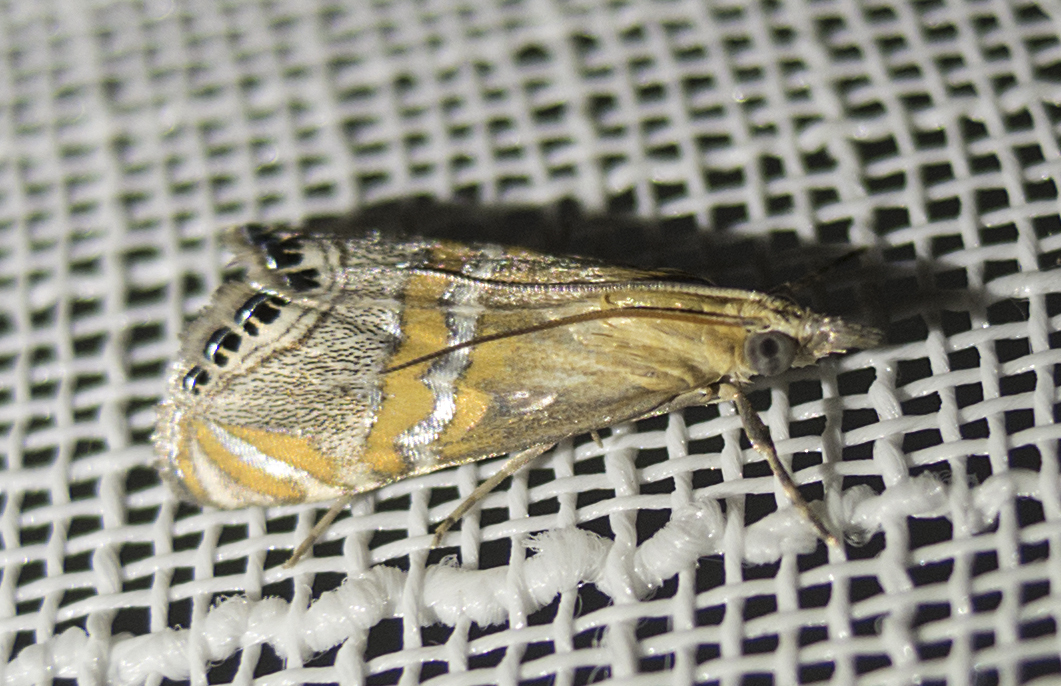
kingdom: Animalia
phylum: Arthropoda
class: Insecta
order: Lepidoptera
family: Crambidae
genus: Euchromius
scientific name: Euchromius bella
